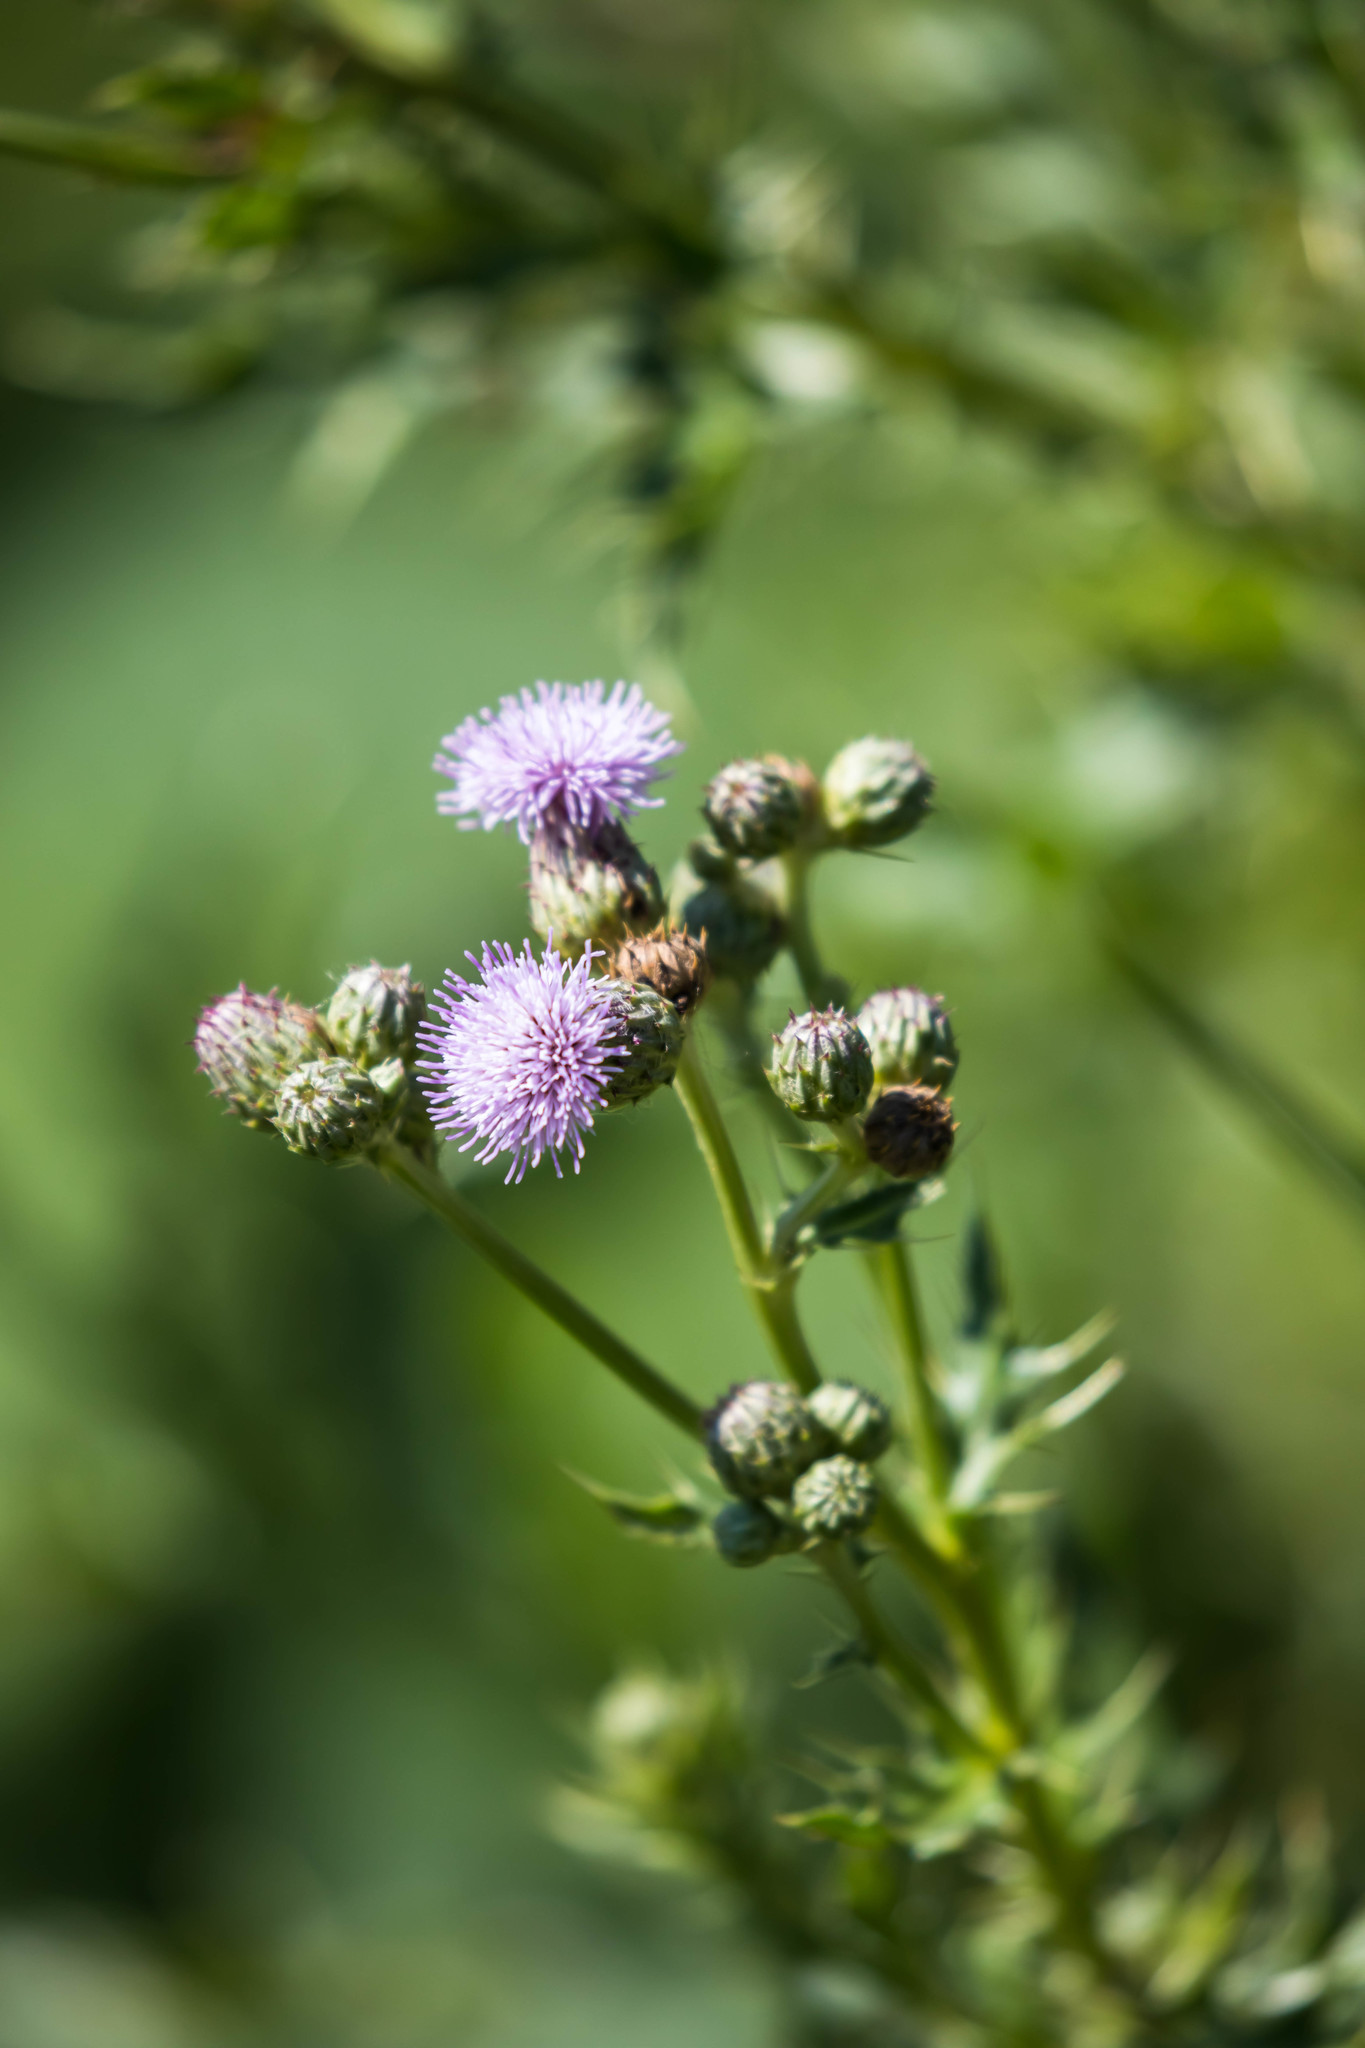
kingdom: Plantae
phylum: Tracheophyta
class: Magnoliopsida
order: Asterales
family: Asteraceae
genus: Cirsium
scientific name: Cirsium arvense
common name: Creeping thistle
